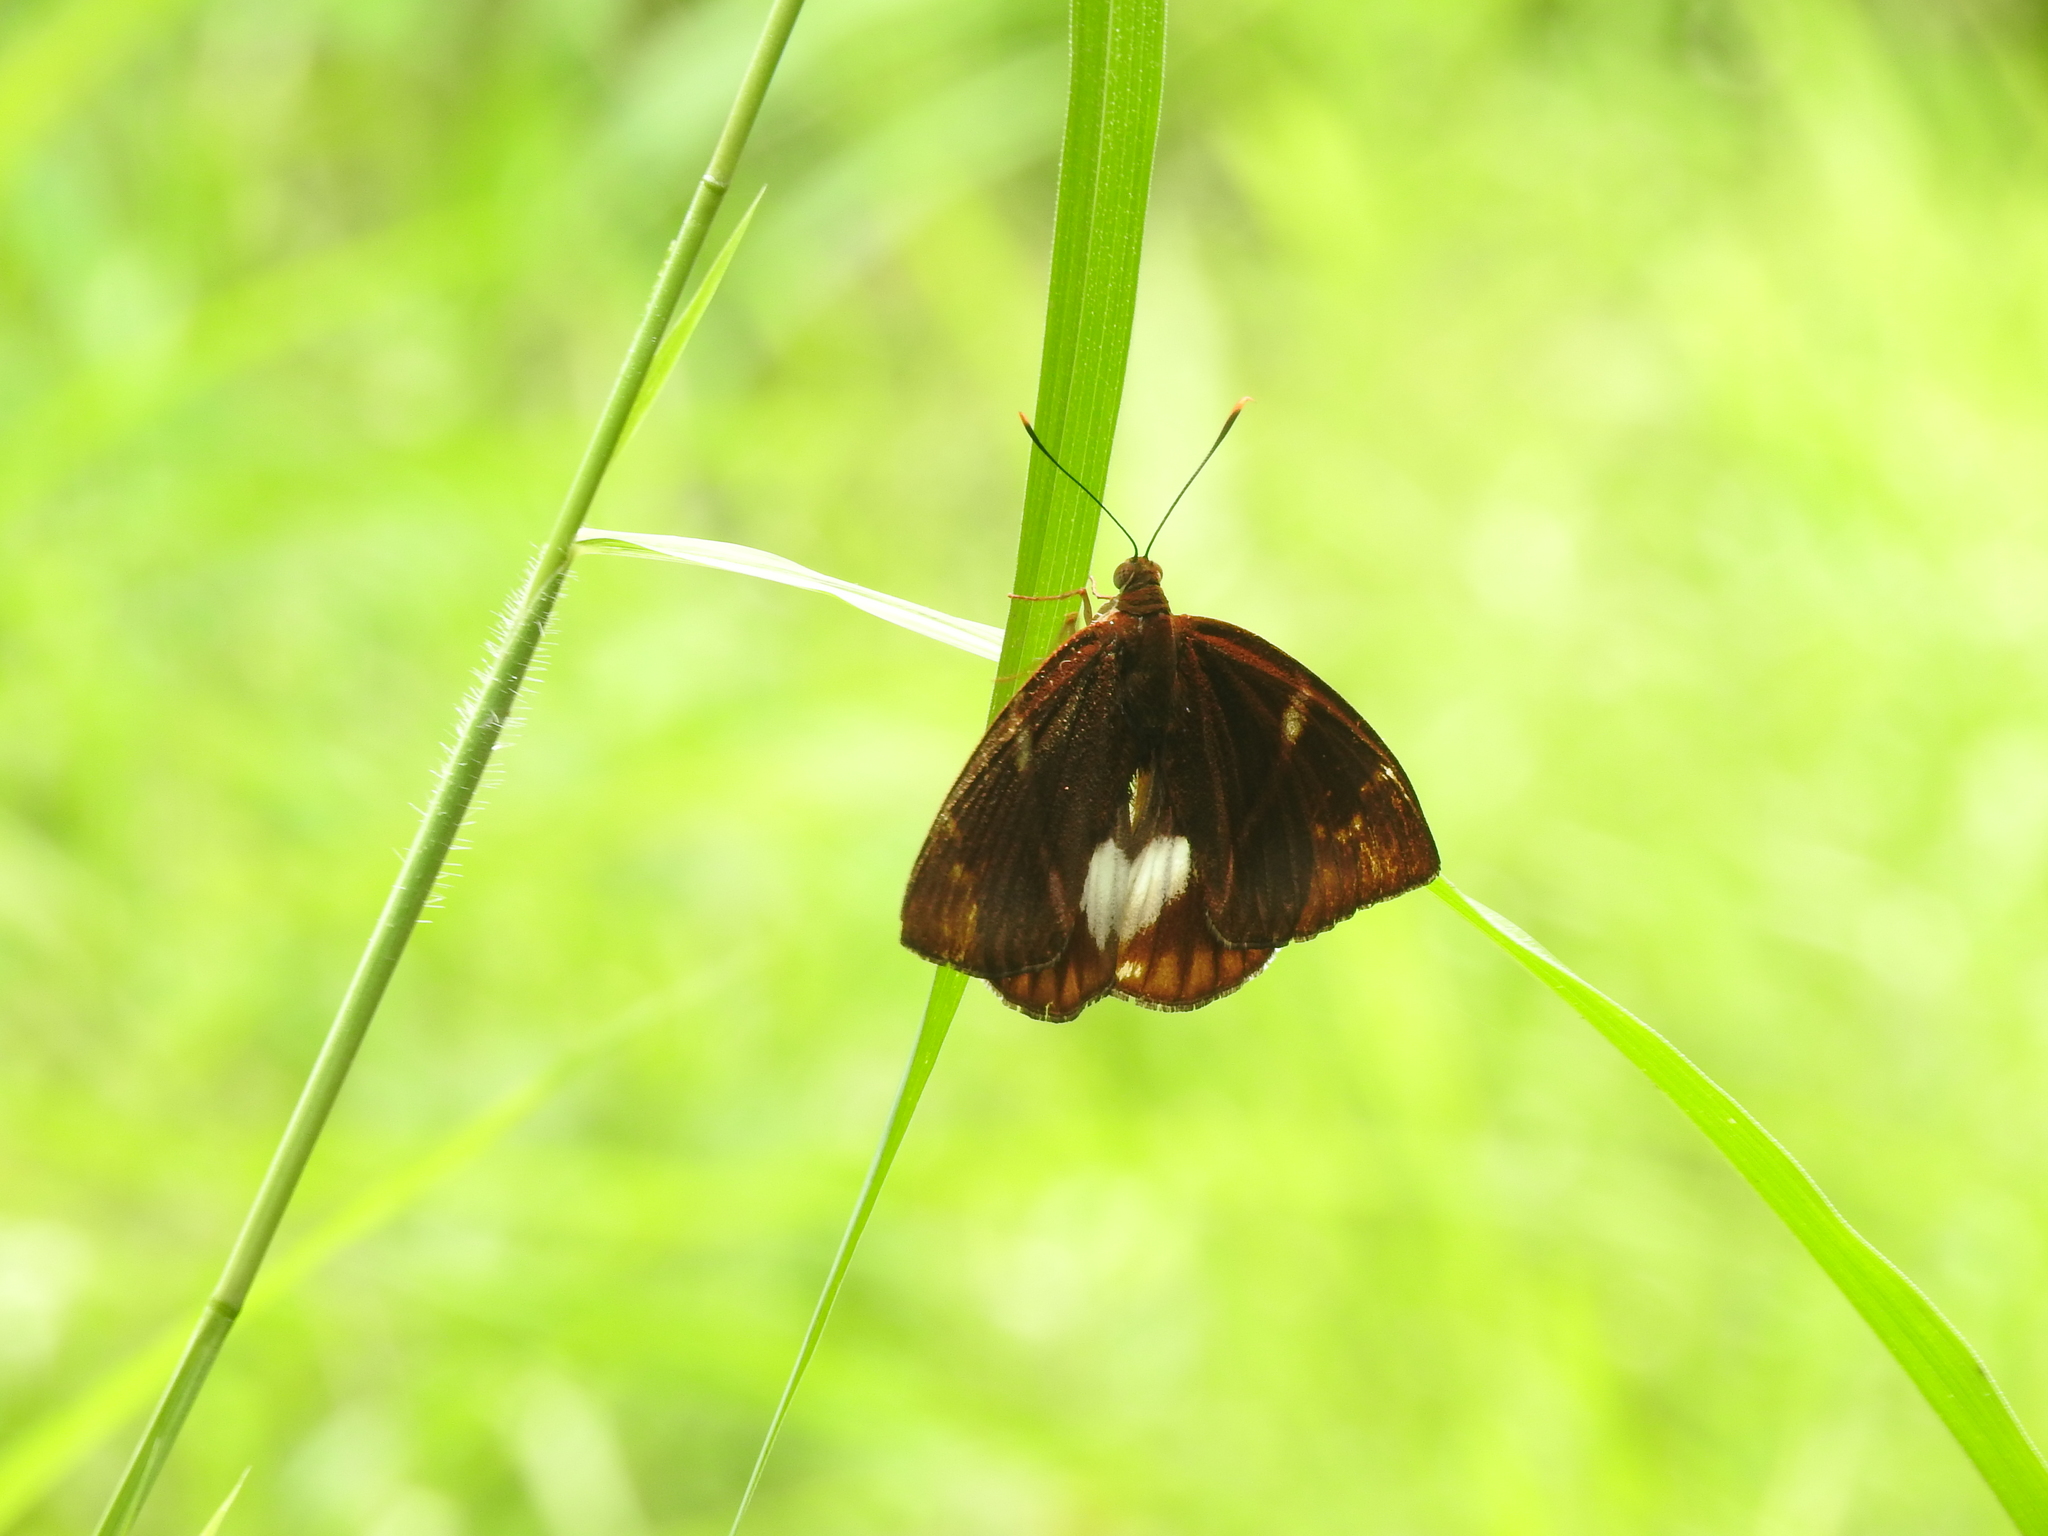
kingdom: Animalia
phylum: Arthropoda
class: Insecta
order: Lepidoptera
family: Castniidae
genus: Castniomera
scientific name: Castniomera atymnius
